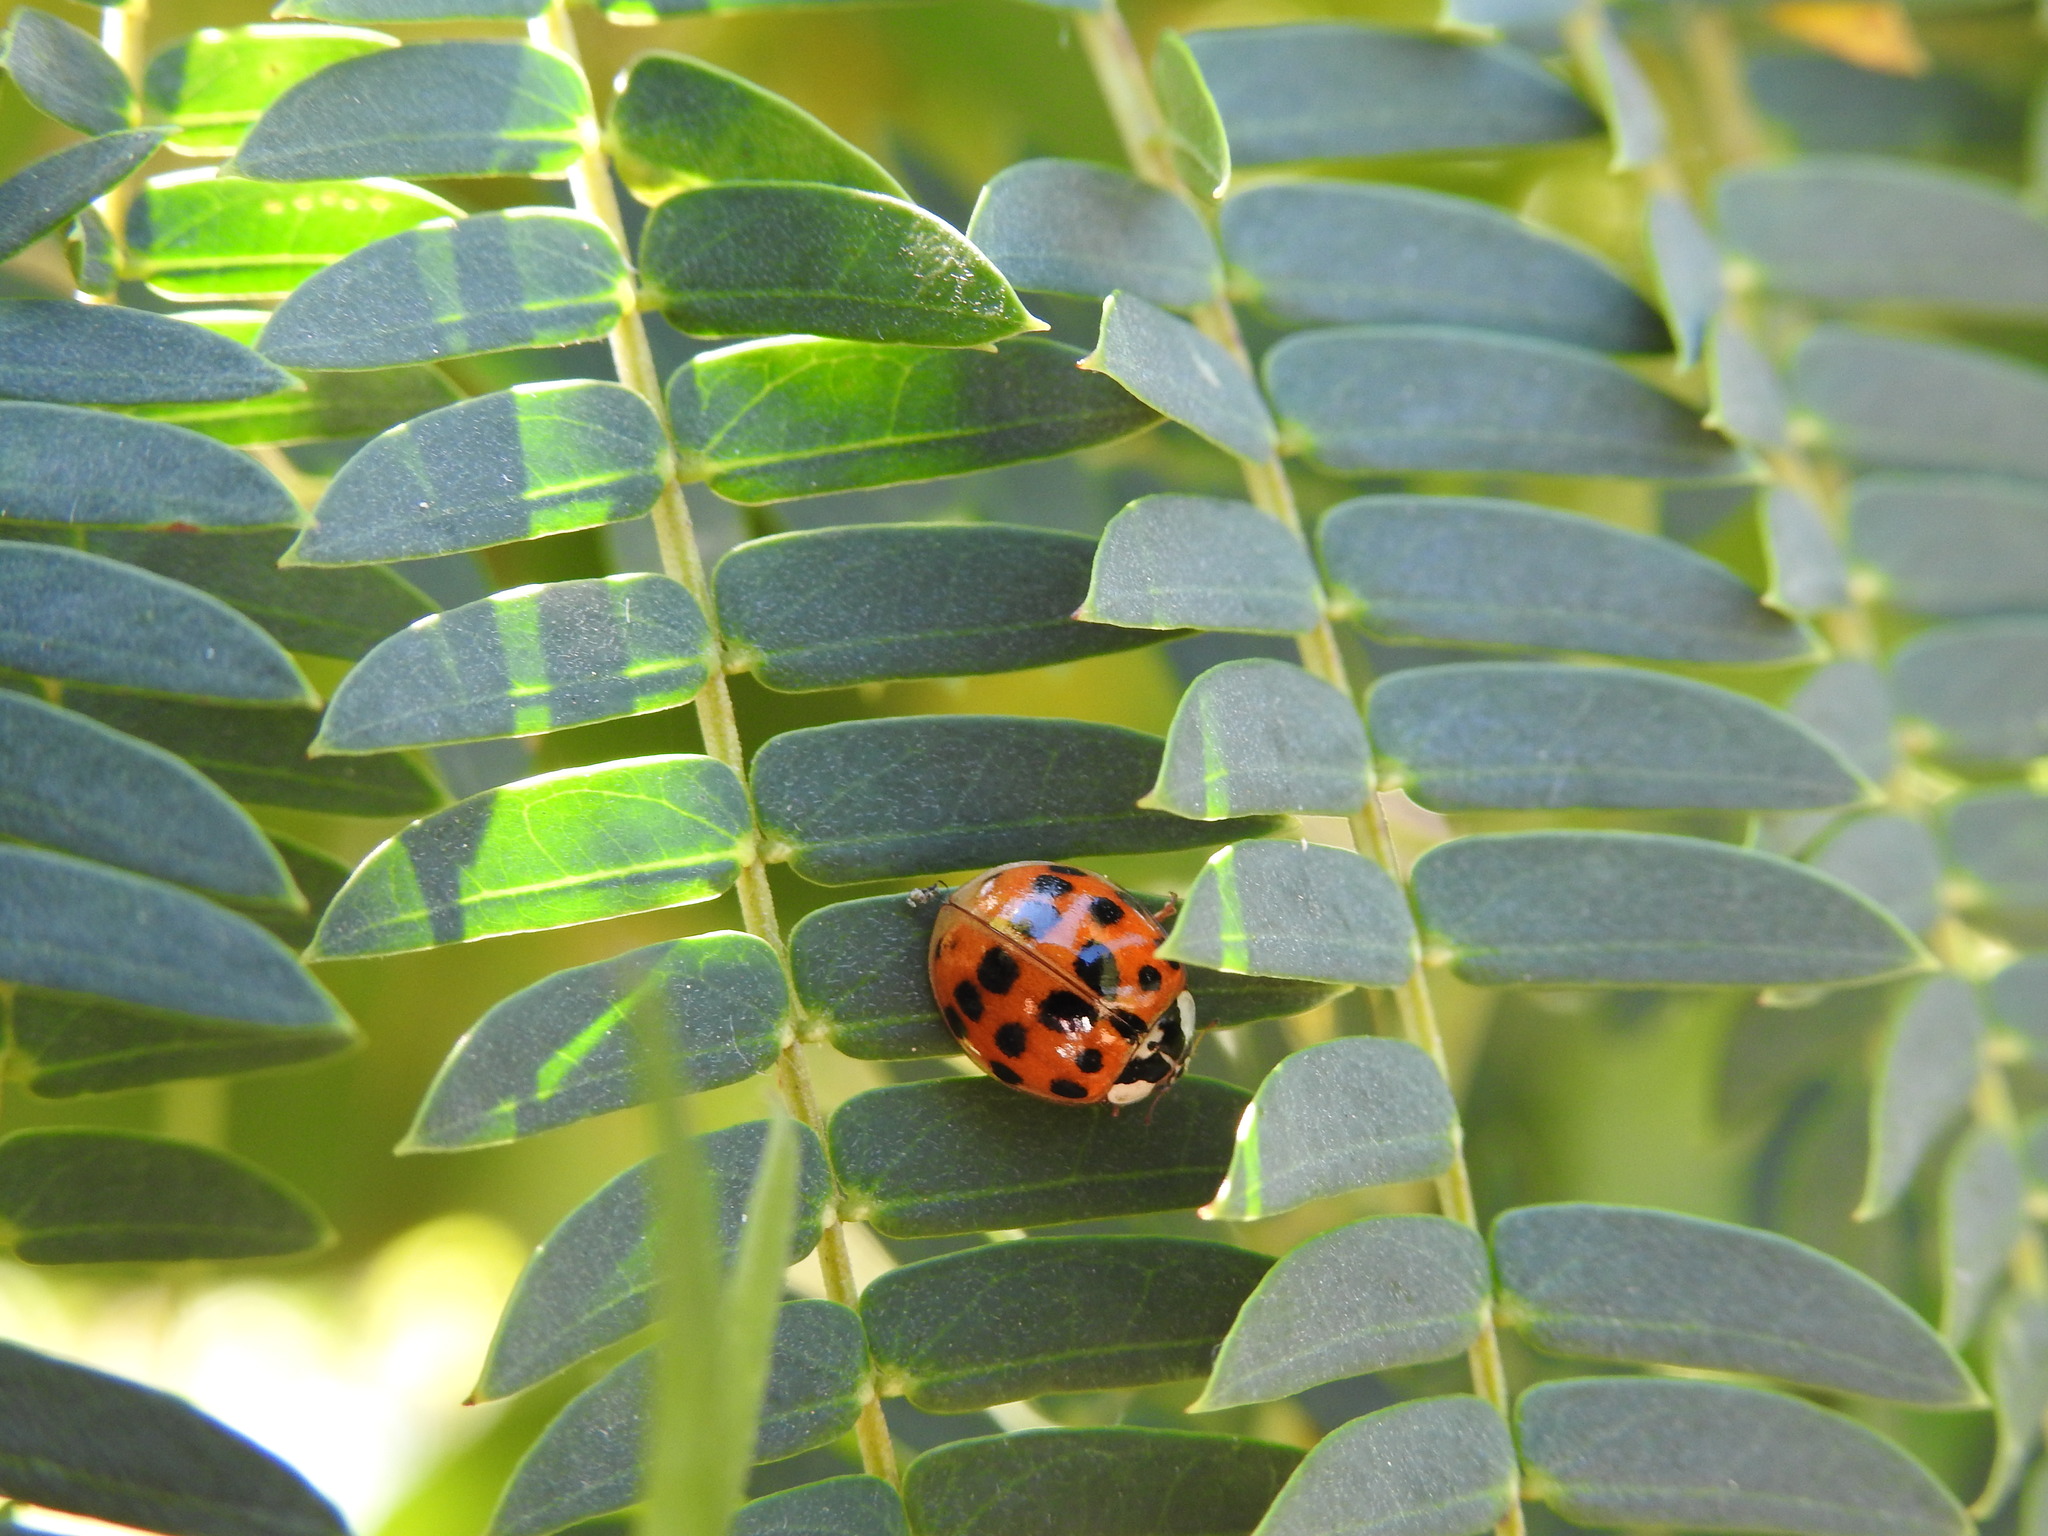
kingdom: Animalia
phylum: Arthropoda
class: Insecta
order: Coleoptera
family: Coccinellidae
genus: Harmonia
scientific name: Harmonia axyridis
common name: Harlequin ladybird
